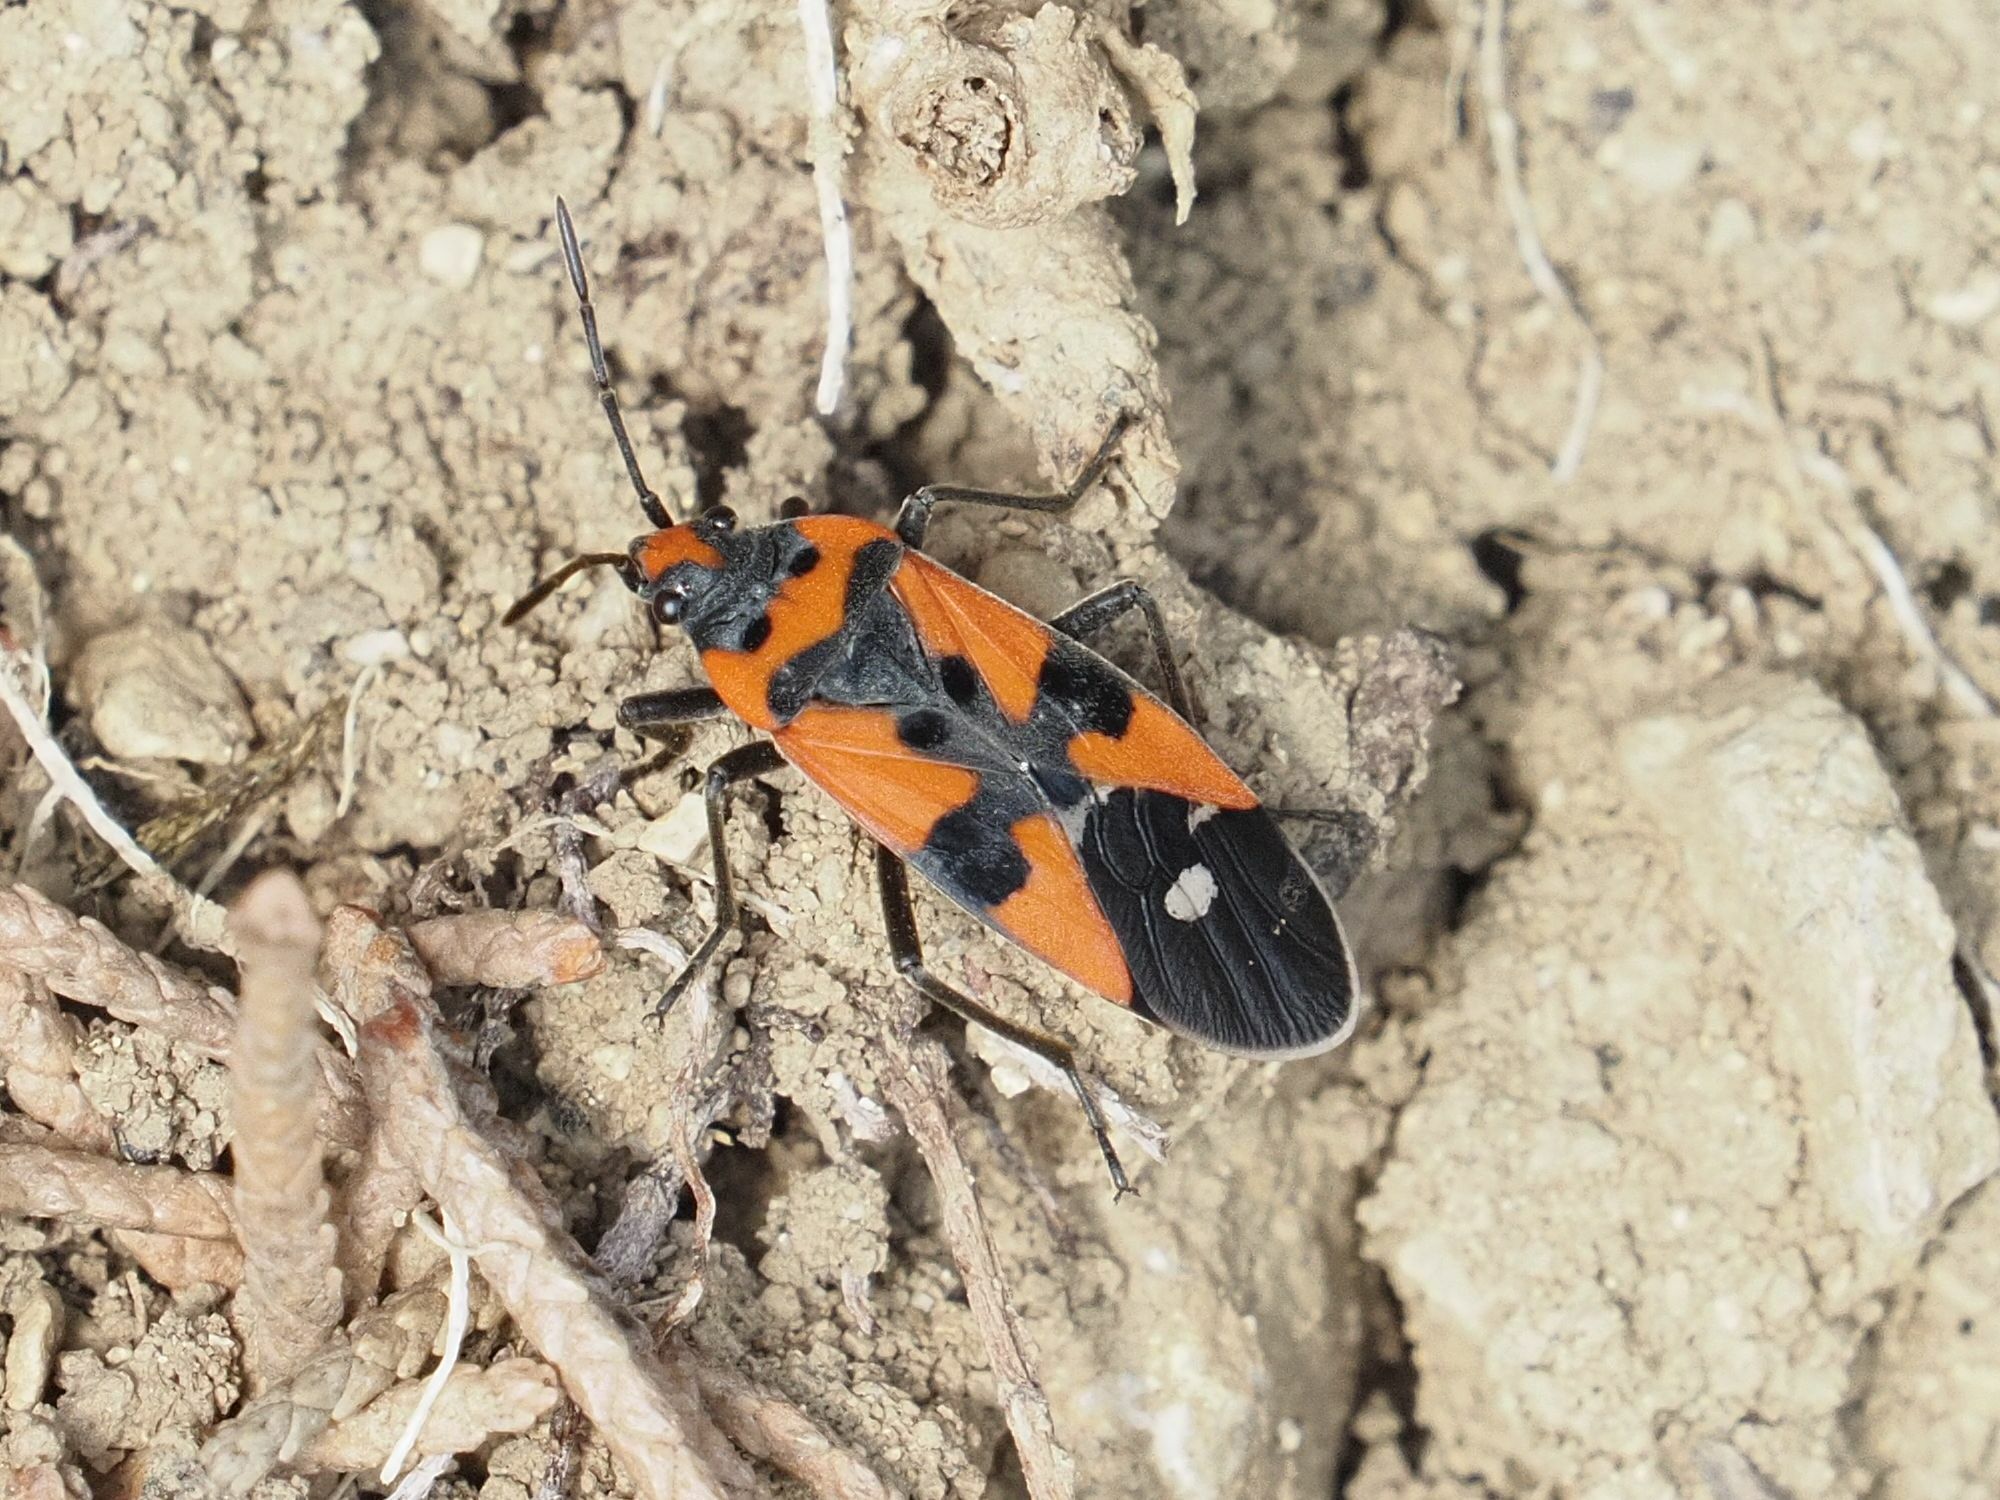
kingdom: Animalia
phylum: Arthropoda
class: Insecta
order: Hemiptera
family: Lygaeidae
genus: Lygaeus
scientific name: Lygaeus equestris
